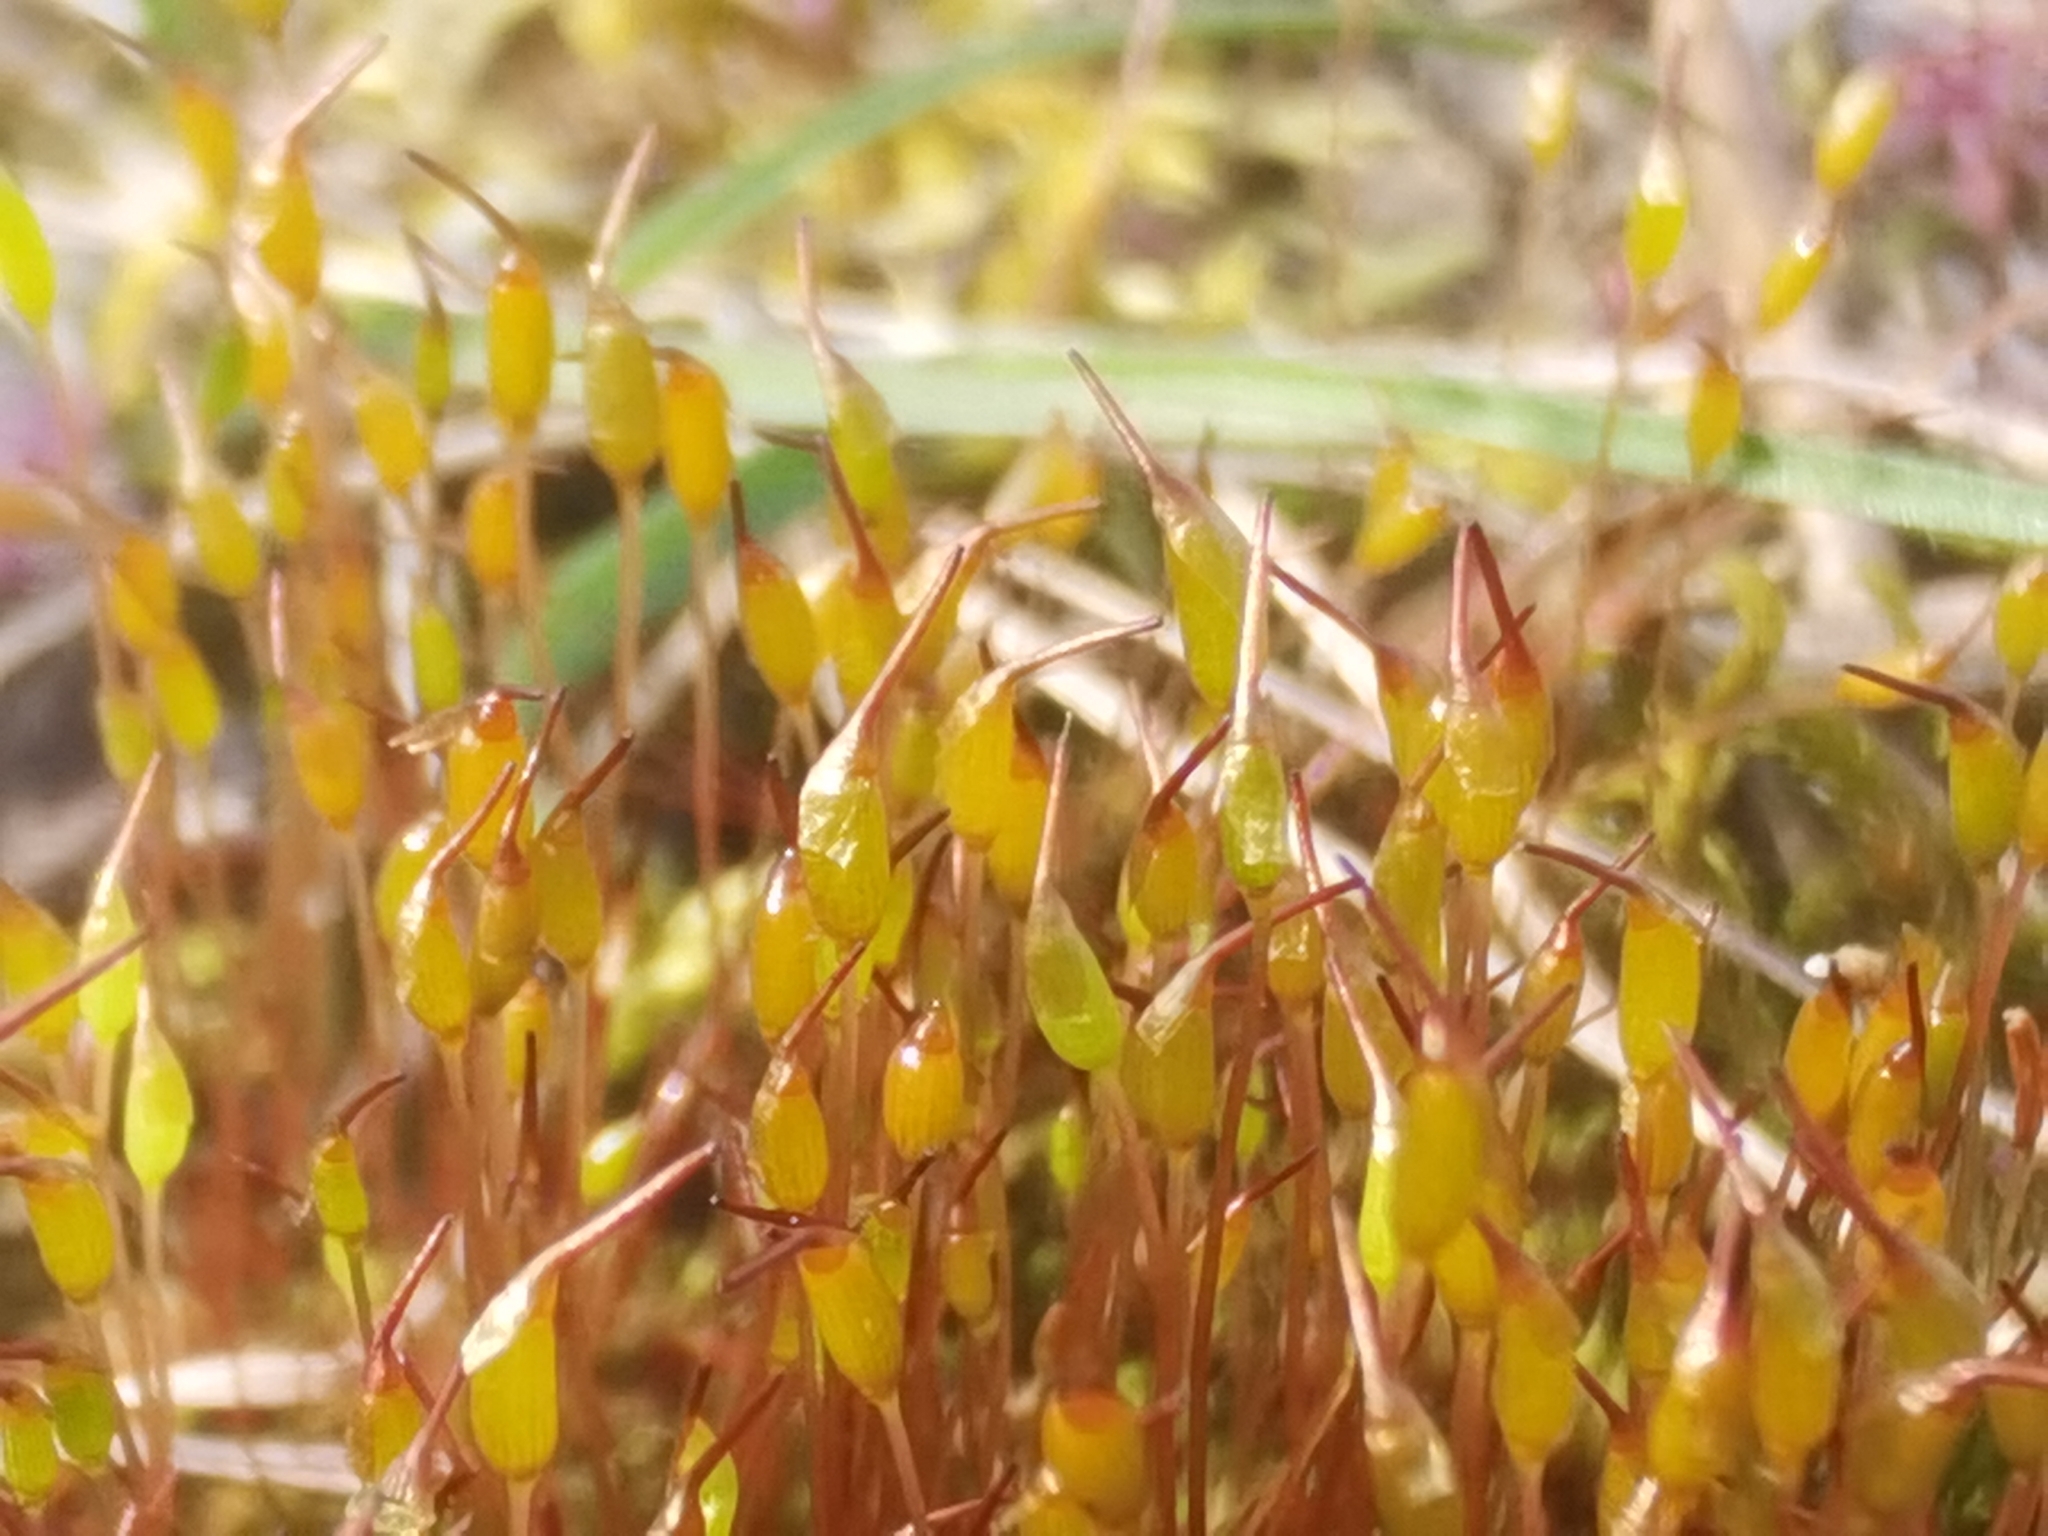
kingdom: Plantae
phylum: Bryophyta
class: Bryopsida
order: Dicranales
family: Ditrichaceae
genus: Ceratodon
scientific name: Ceratodon purpureus
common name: Redshank
